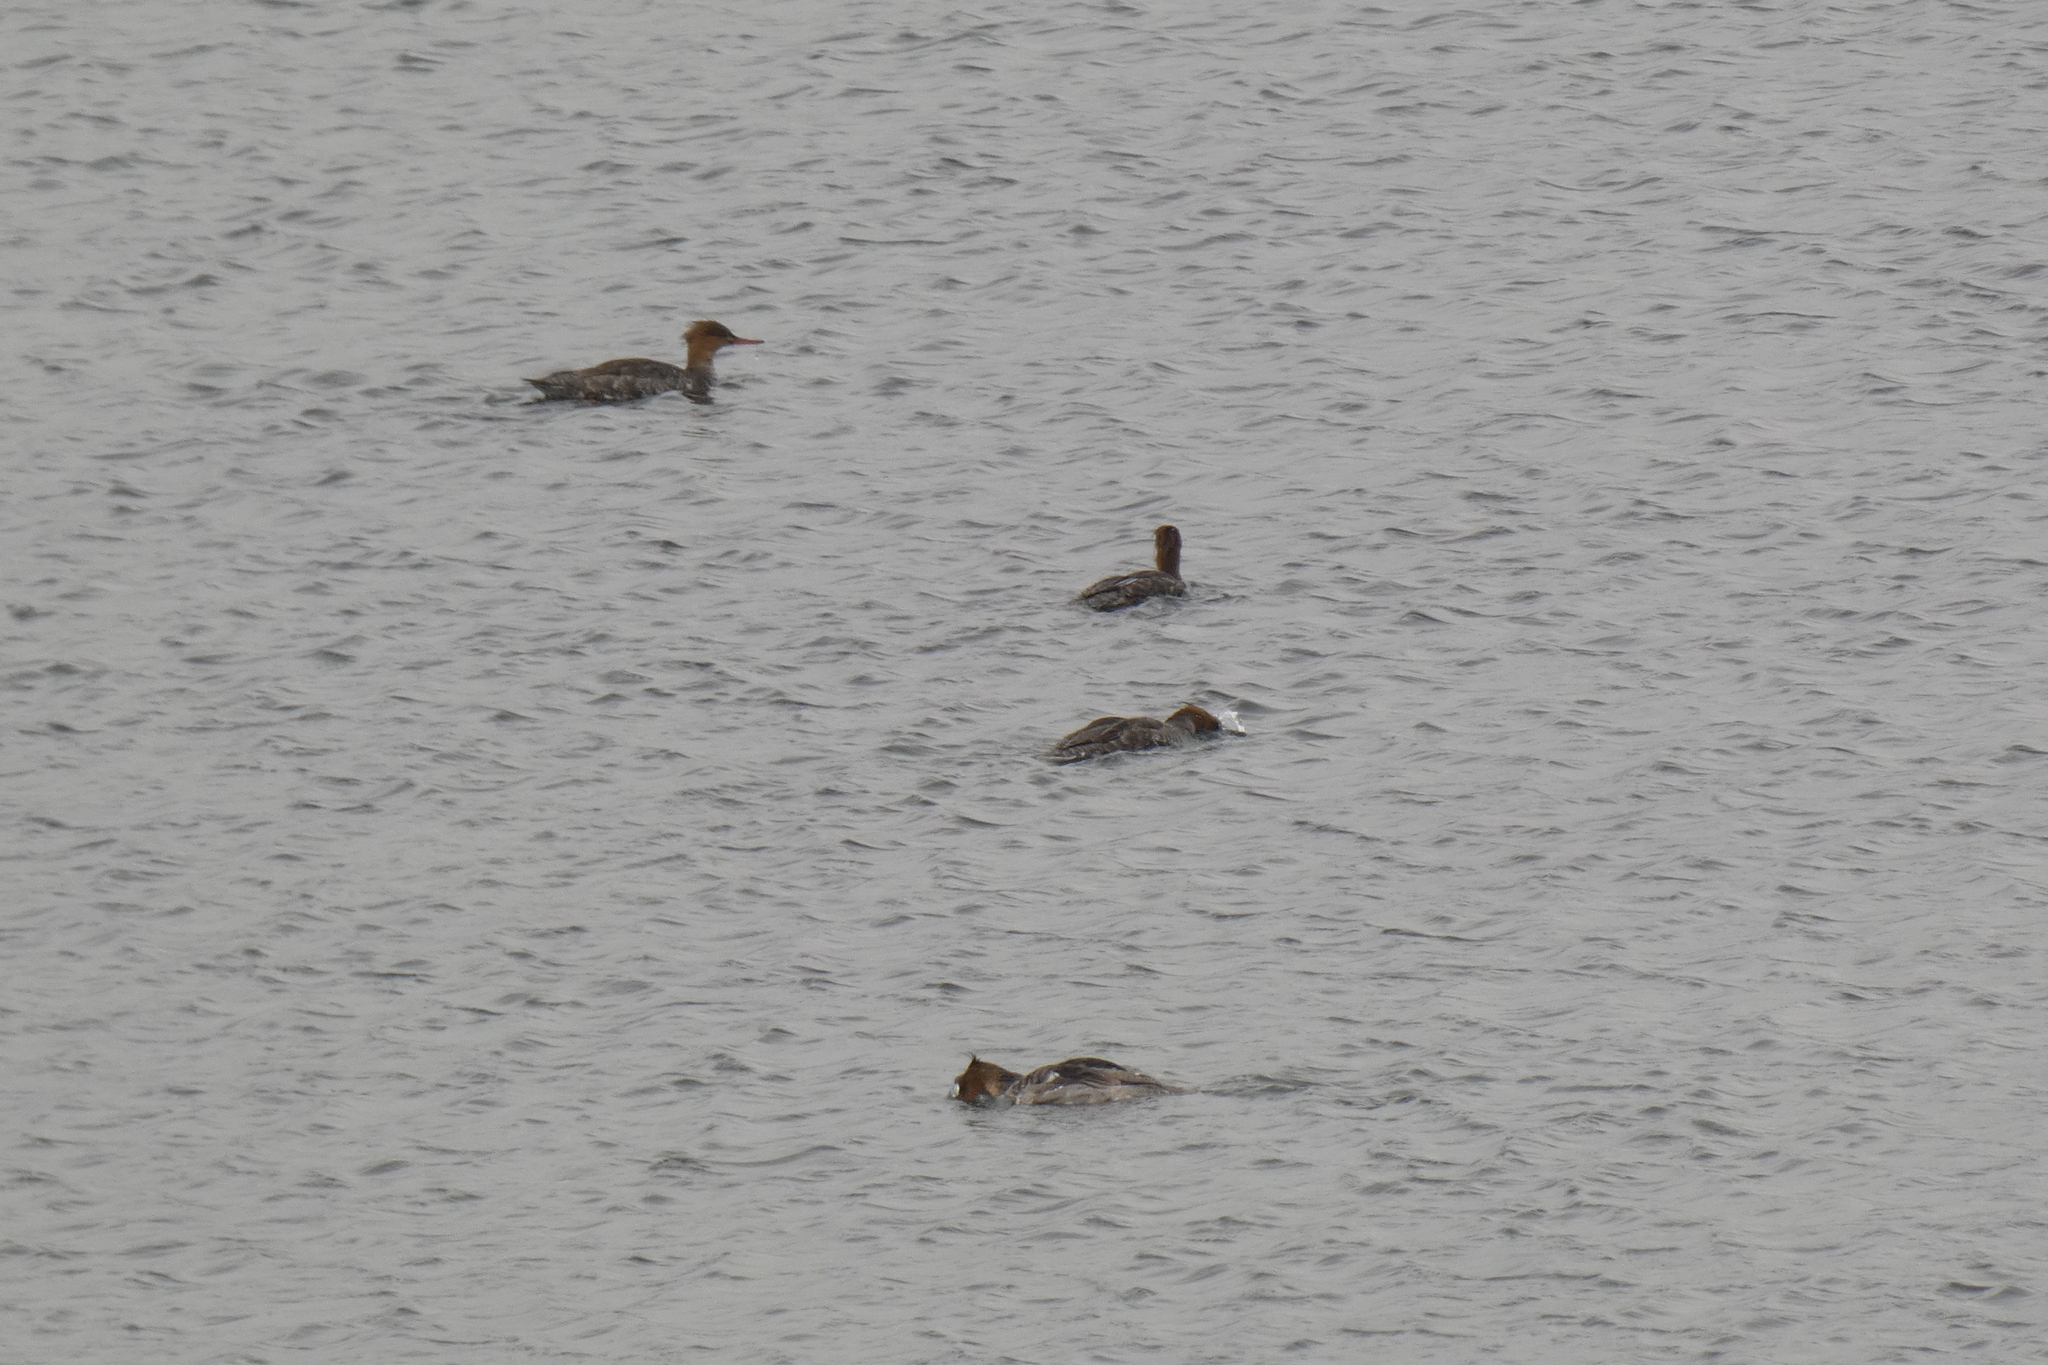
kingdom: Animalia
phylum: Chordata
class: Aves
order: Anseriformes
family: Anatidae
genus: Mergus
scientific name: Mergus serrator
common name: Red-breasted merganser
